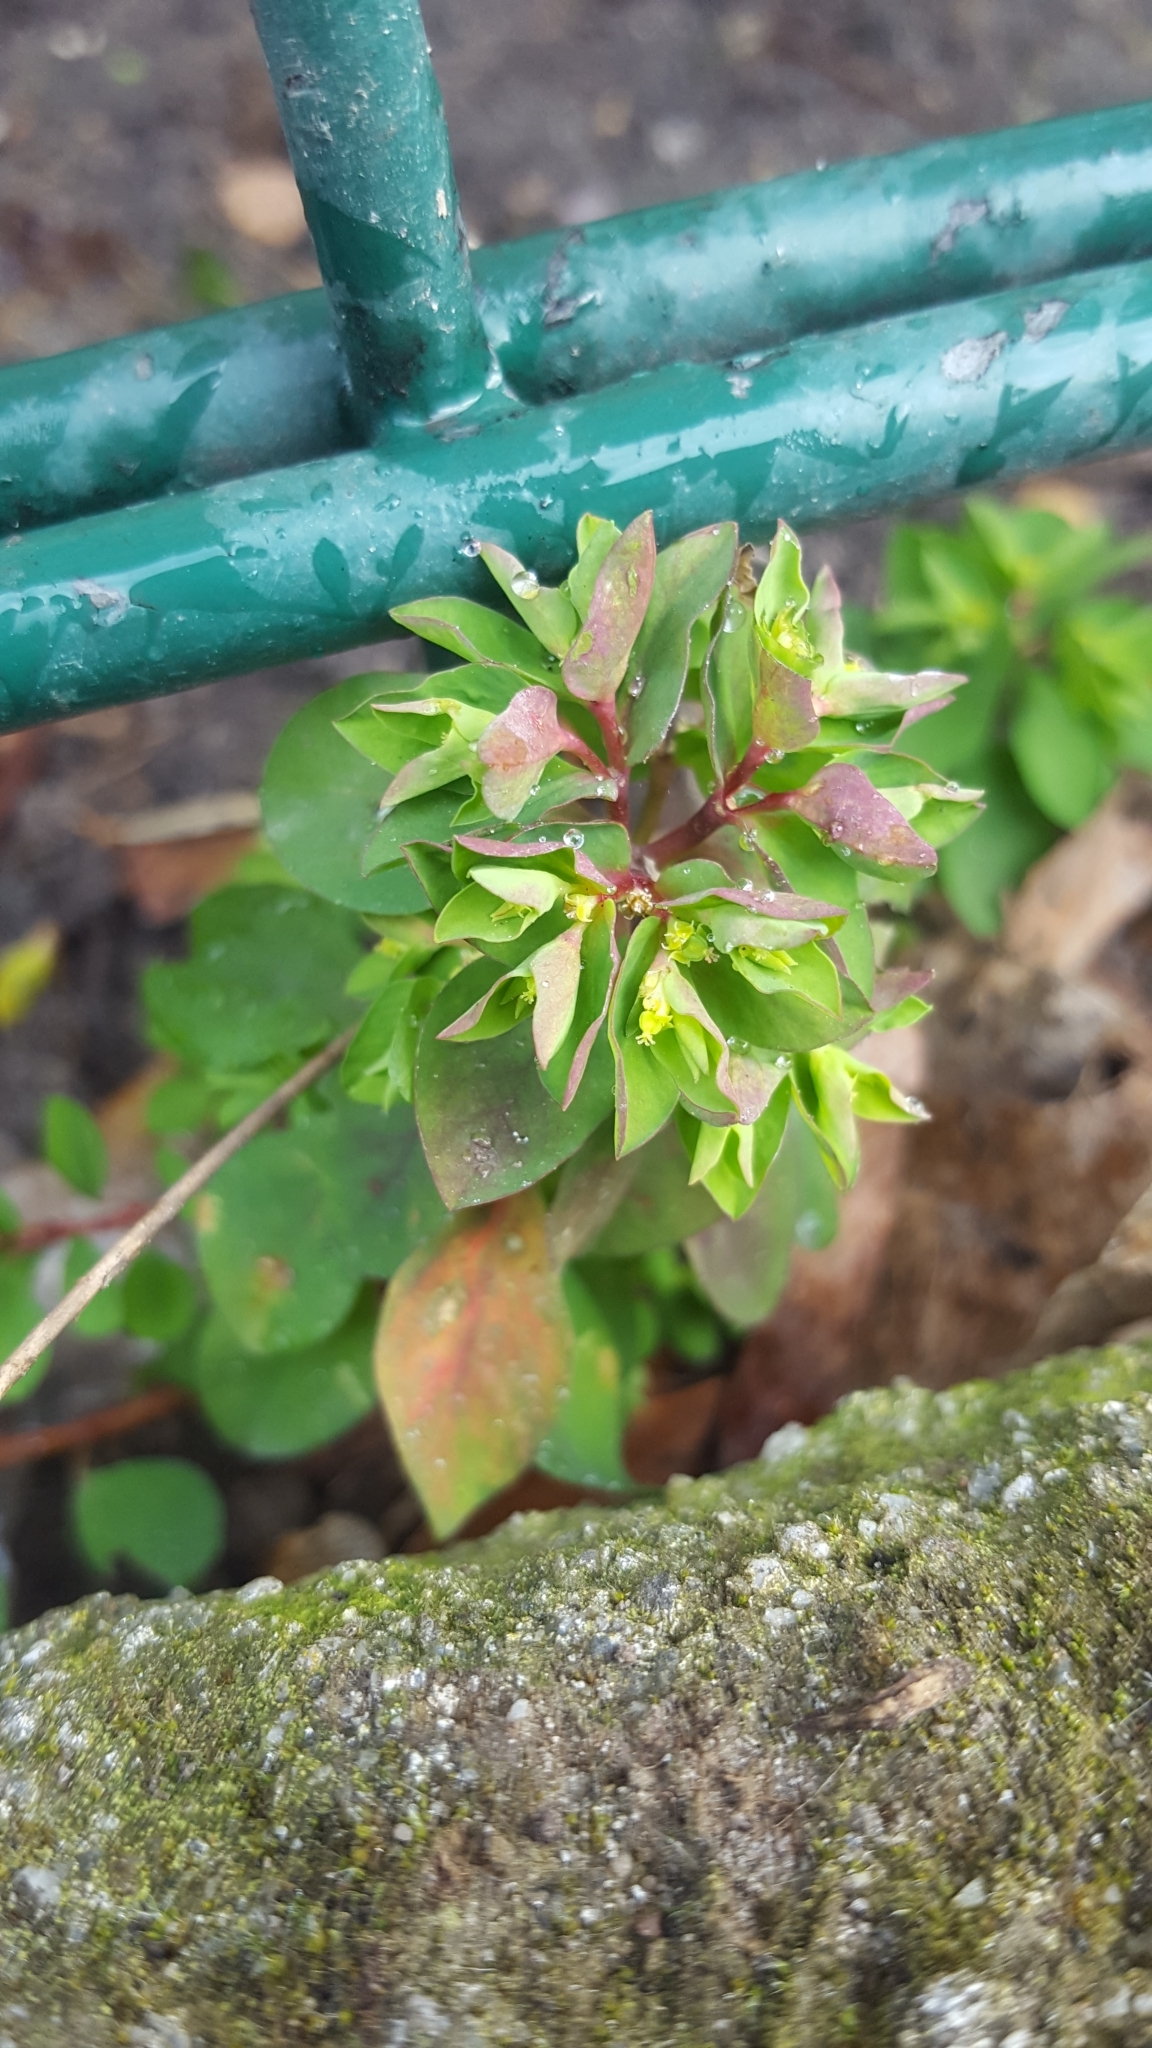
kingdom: Plantae
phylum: Tracheophyta
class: Magnoliopsida
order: Malpighiales
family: Euphorbiaceae
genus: Euphorbia
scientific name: Euphorbia peplus
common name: Petty spurge
